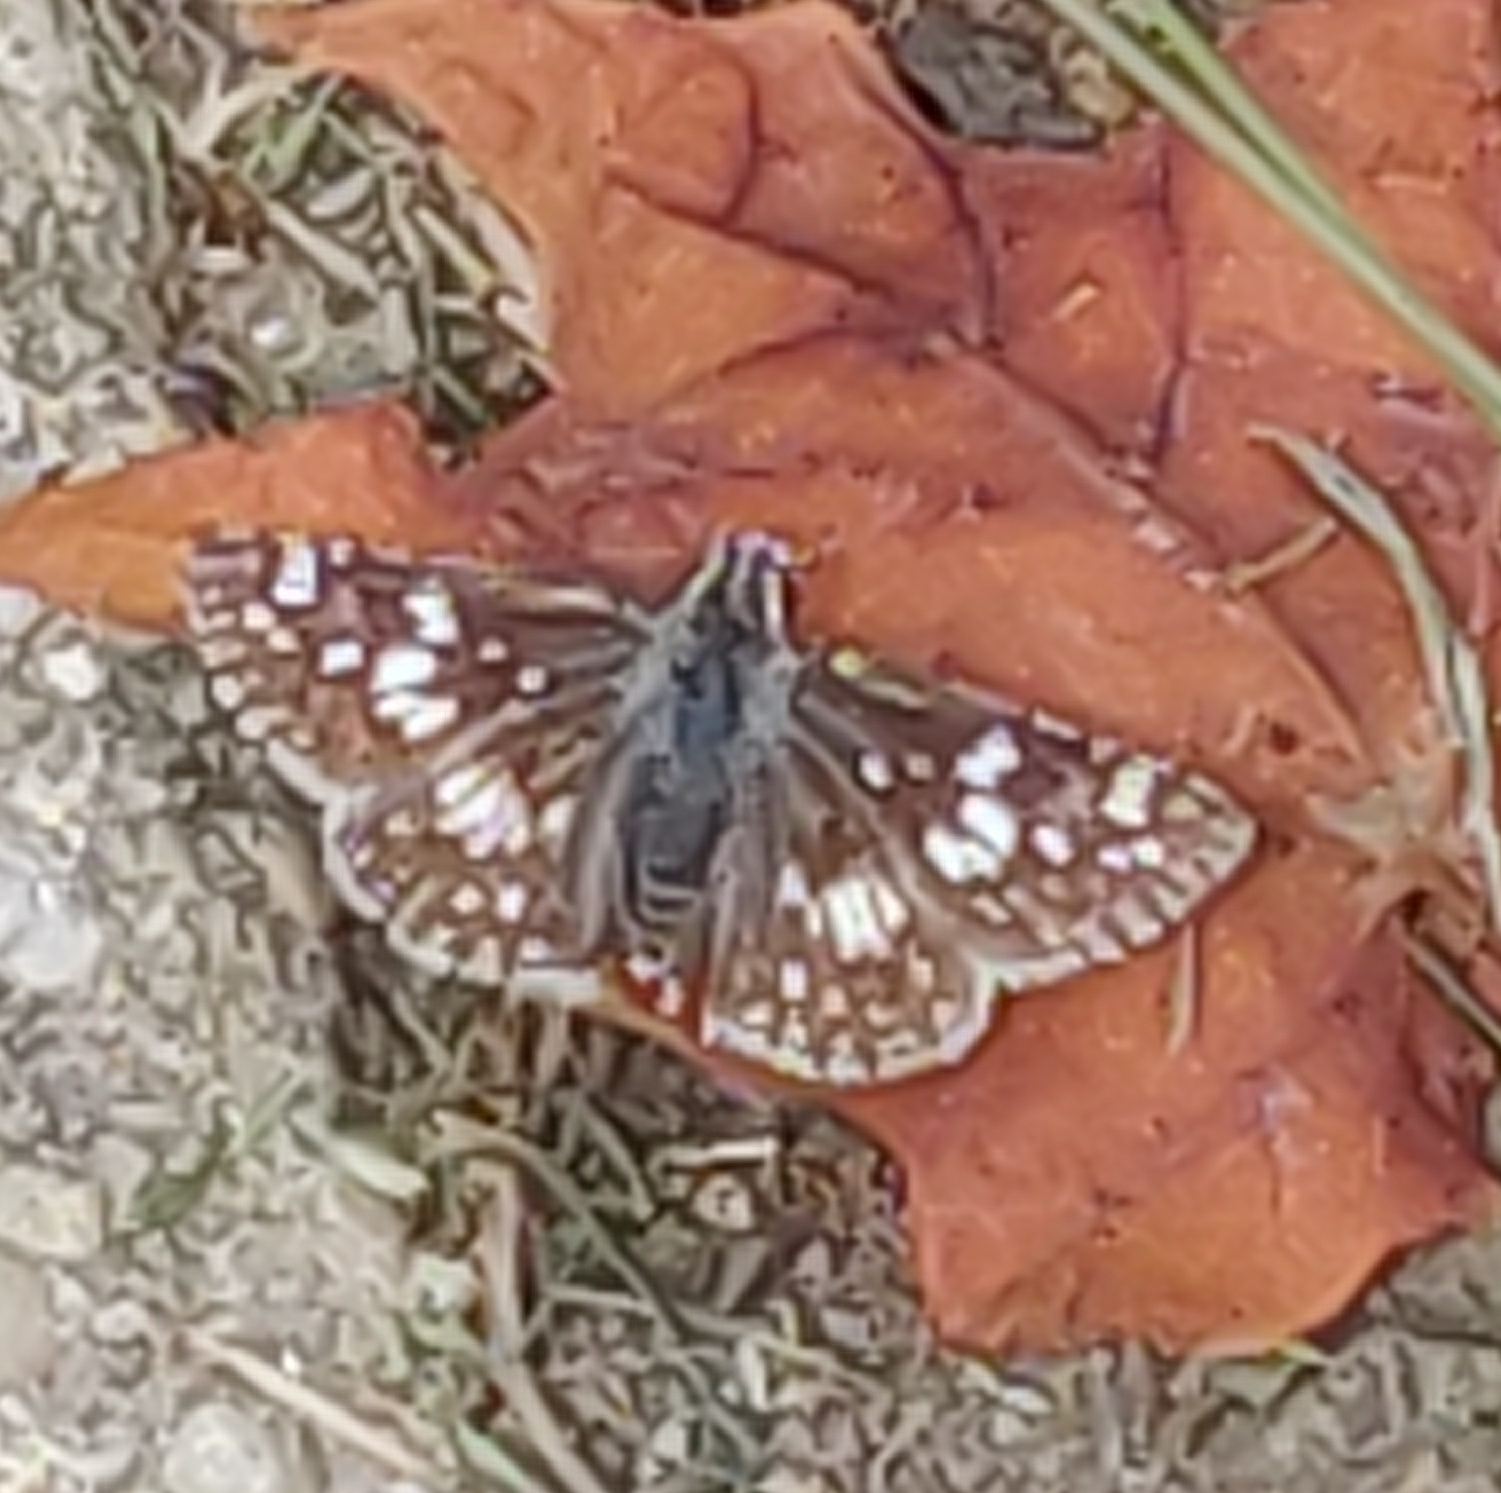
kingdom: Animalia
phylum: Arthropoda
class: Insecta
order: Lepidoptera
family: Hesperiidae
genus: Burnsius
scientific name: Burnsius communis
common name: Common checkered-skipper
